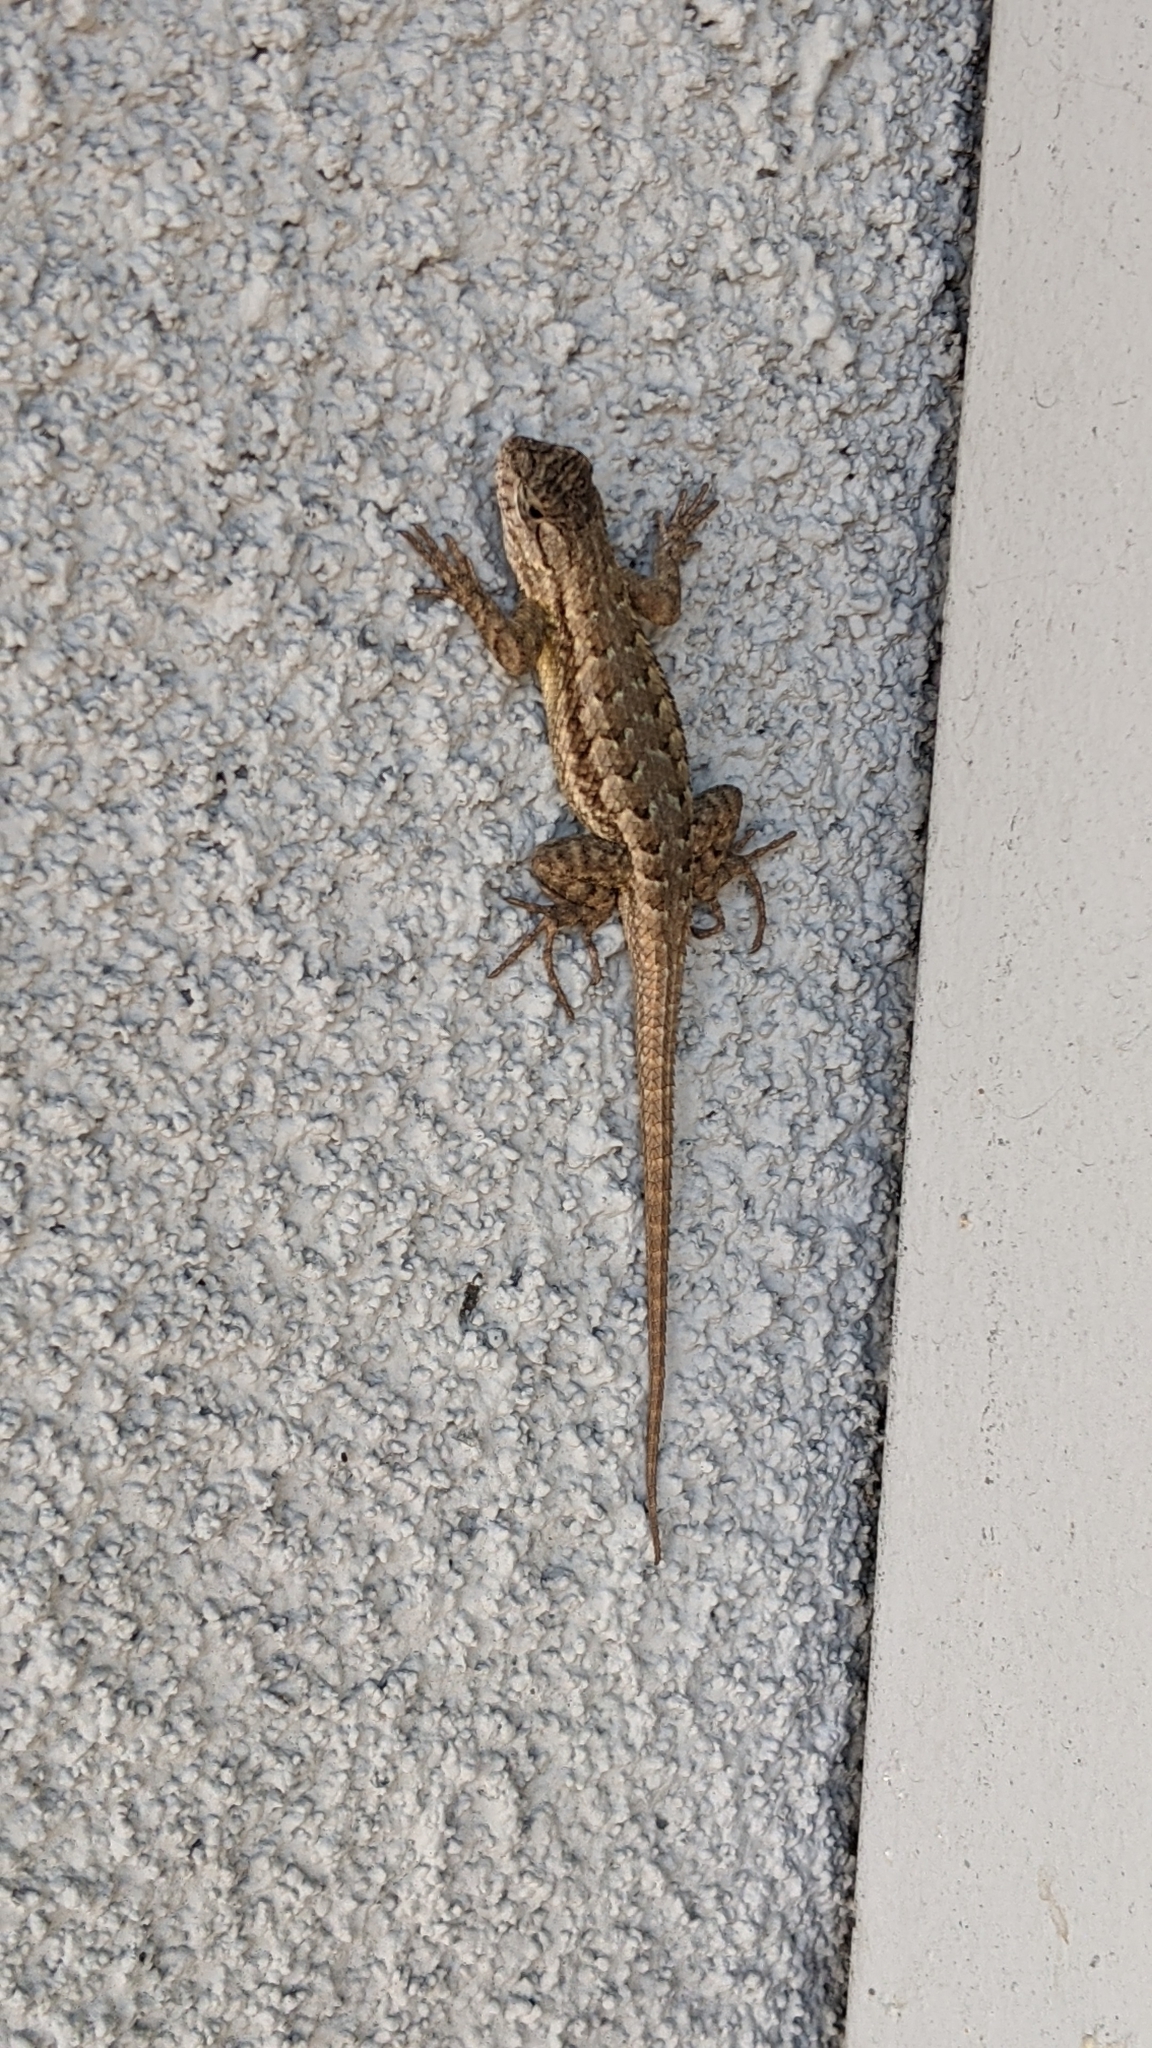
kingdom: Animalia
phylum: Chordata
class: Squamata
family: Phrynosomatidae
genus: Sceloporus
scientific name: Sceloporus occidentalis
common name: Western fence lizard
